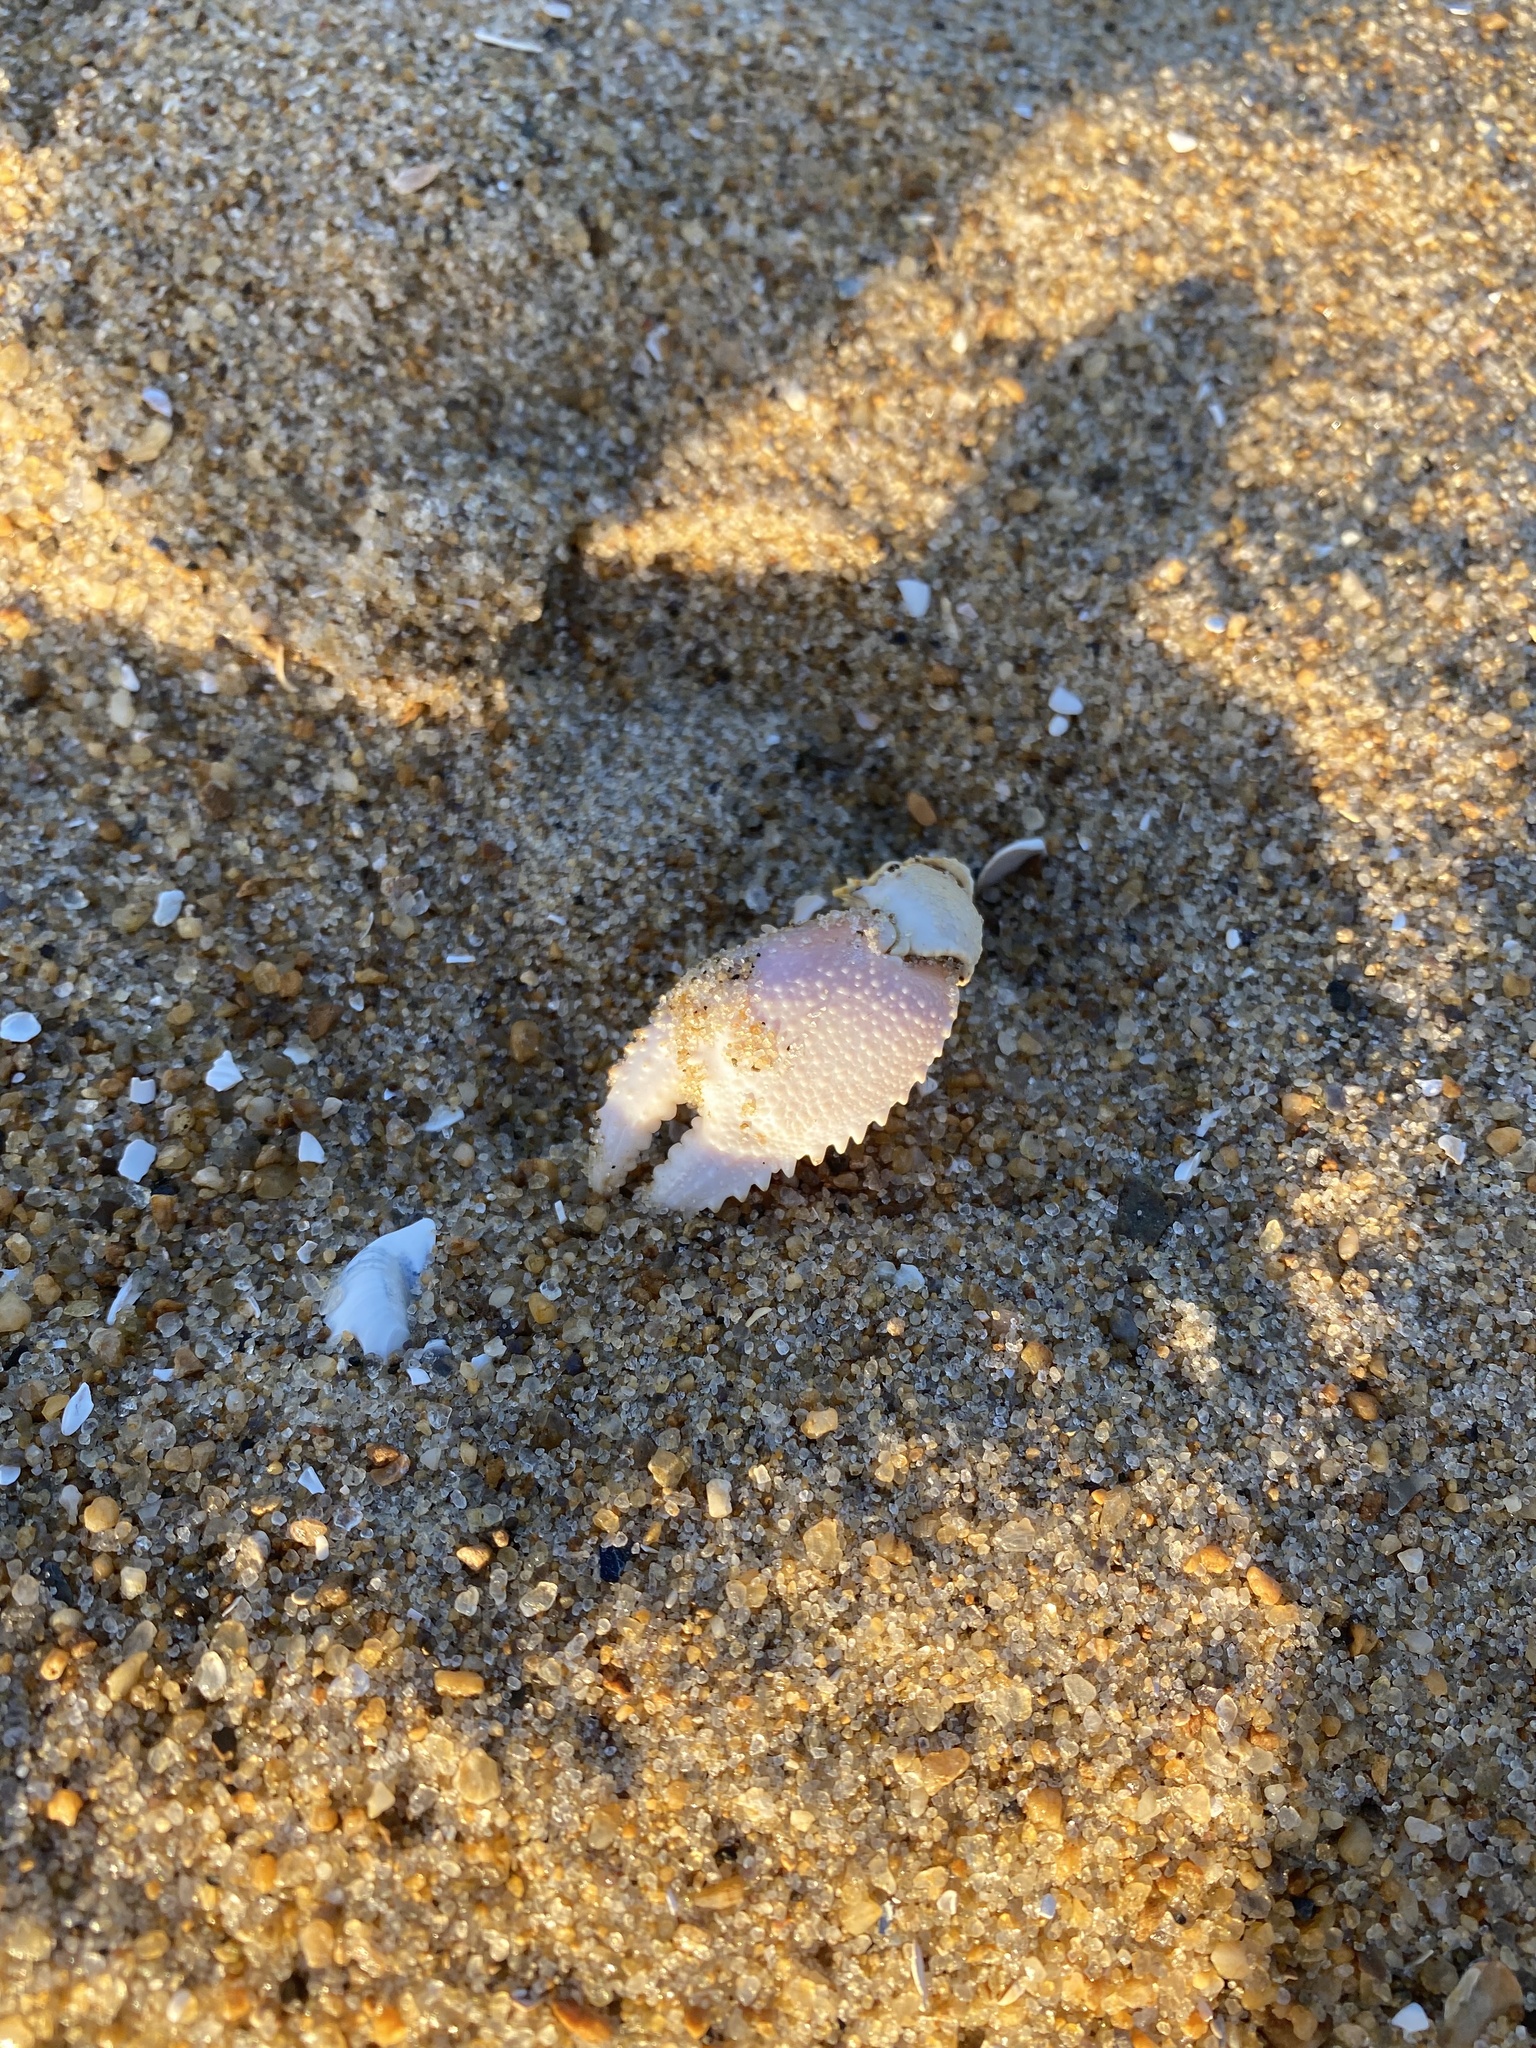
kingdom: Animalia
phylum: Arthropoda
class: Malacostraca
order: Decapoda
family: Ocypodidae
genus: Ocypode
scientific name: Ocypode quadrata
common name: Ghost crab
